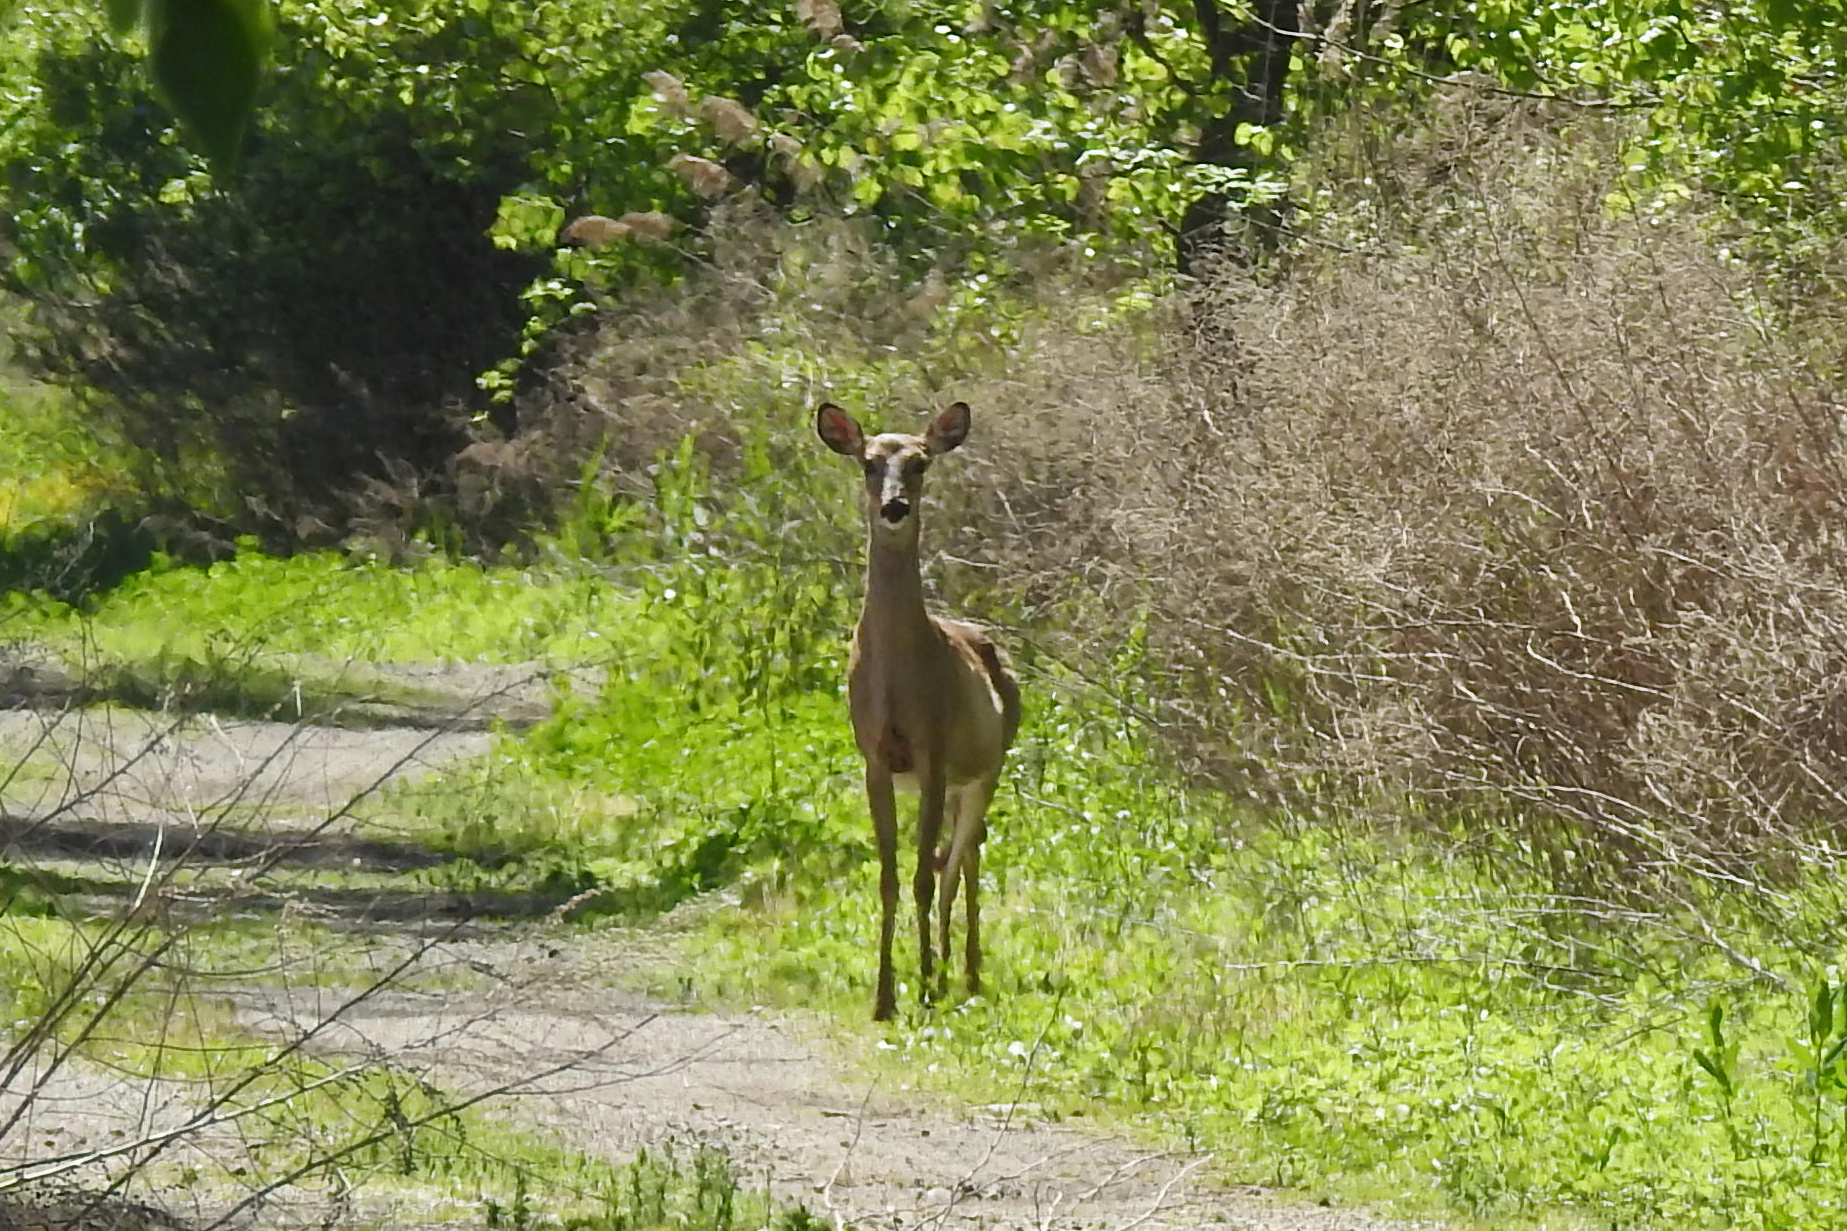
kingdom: Animalia
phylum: Chordata
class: Mammalia
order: Artiodactyla
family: Cervidae
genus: Odocoileus
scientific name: Odocoileus virginianus
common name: White-tailed deer
